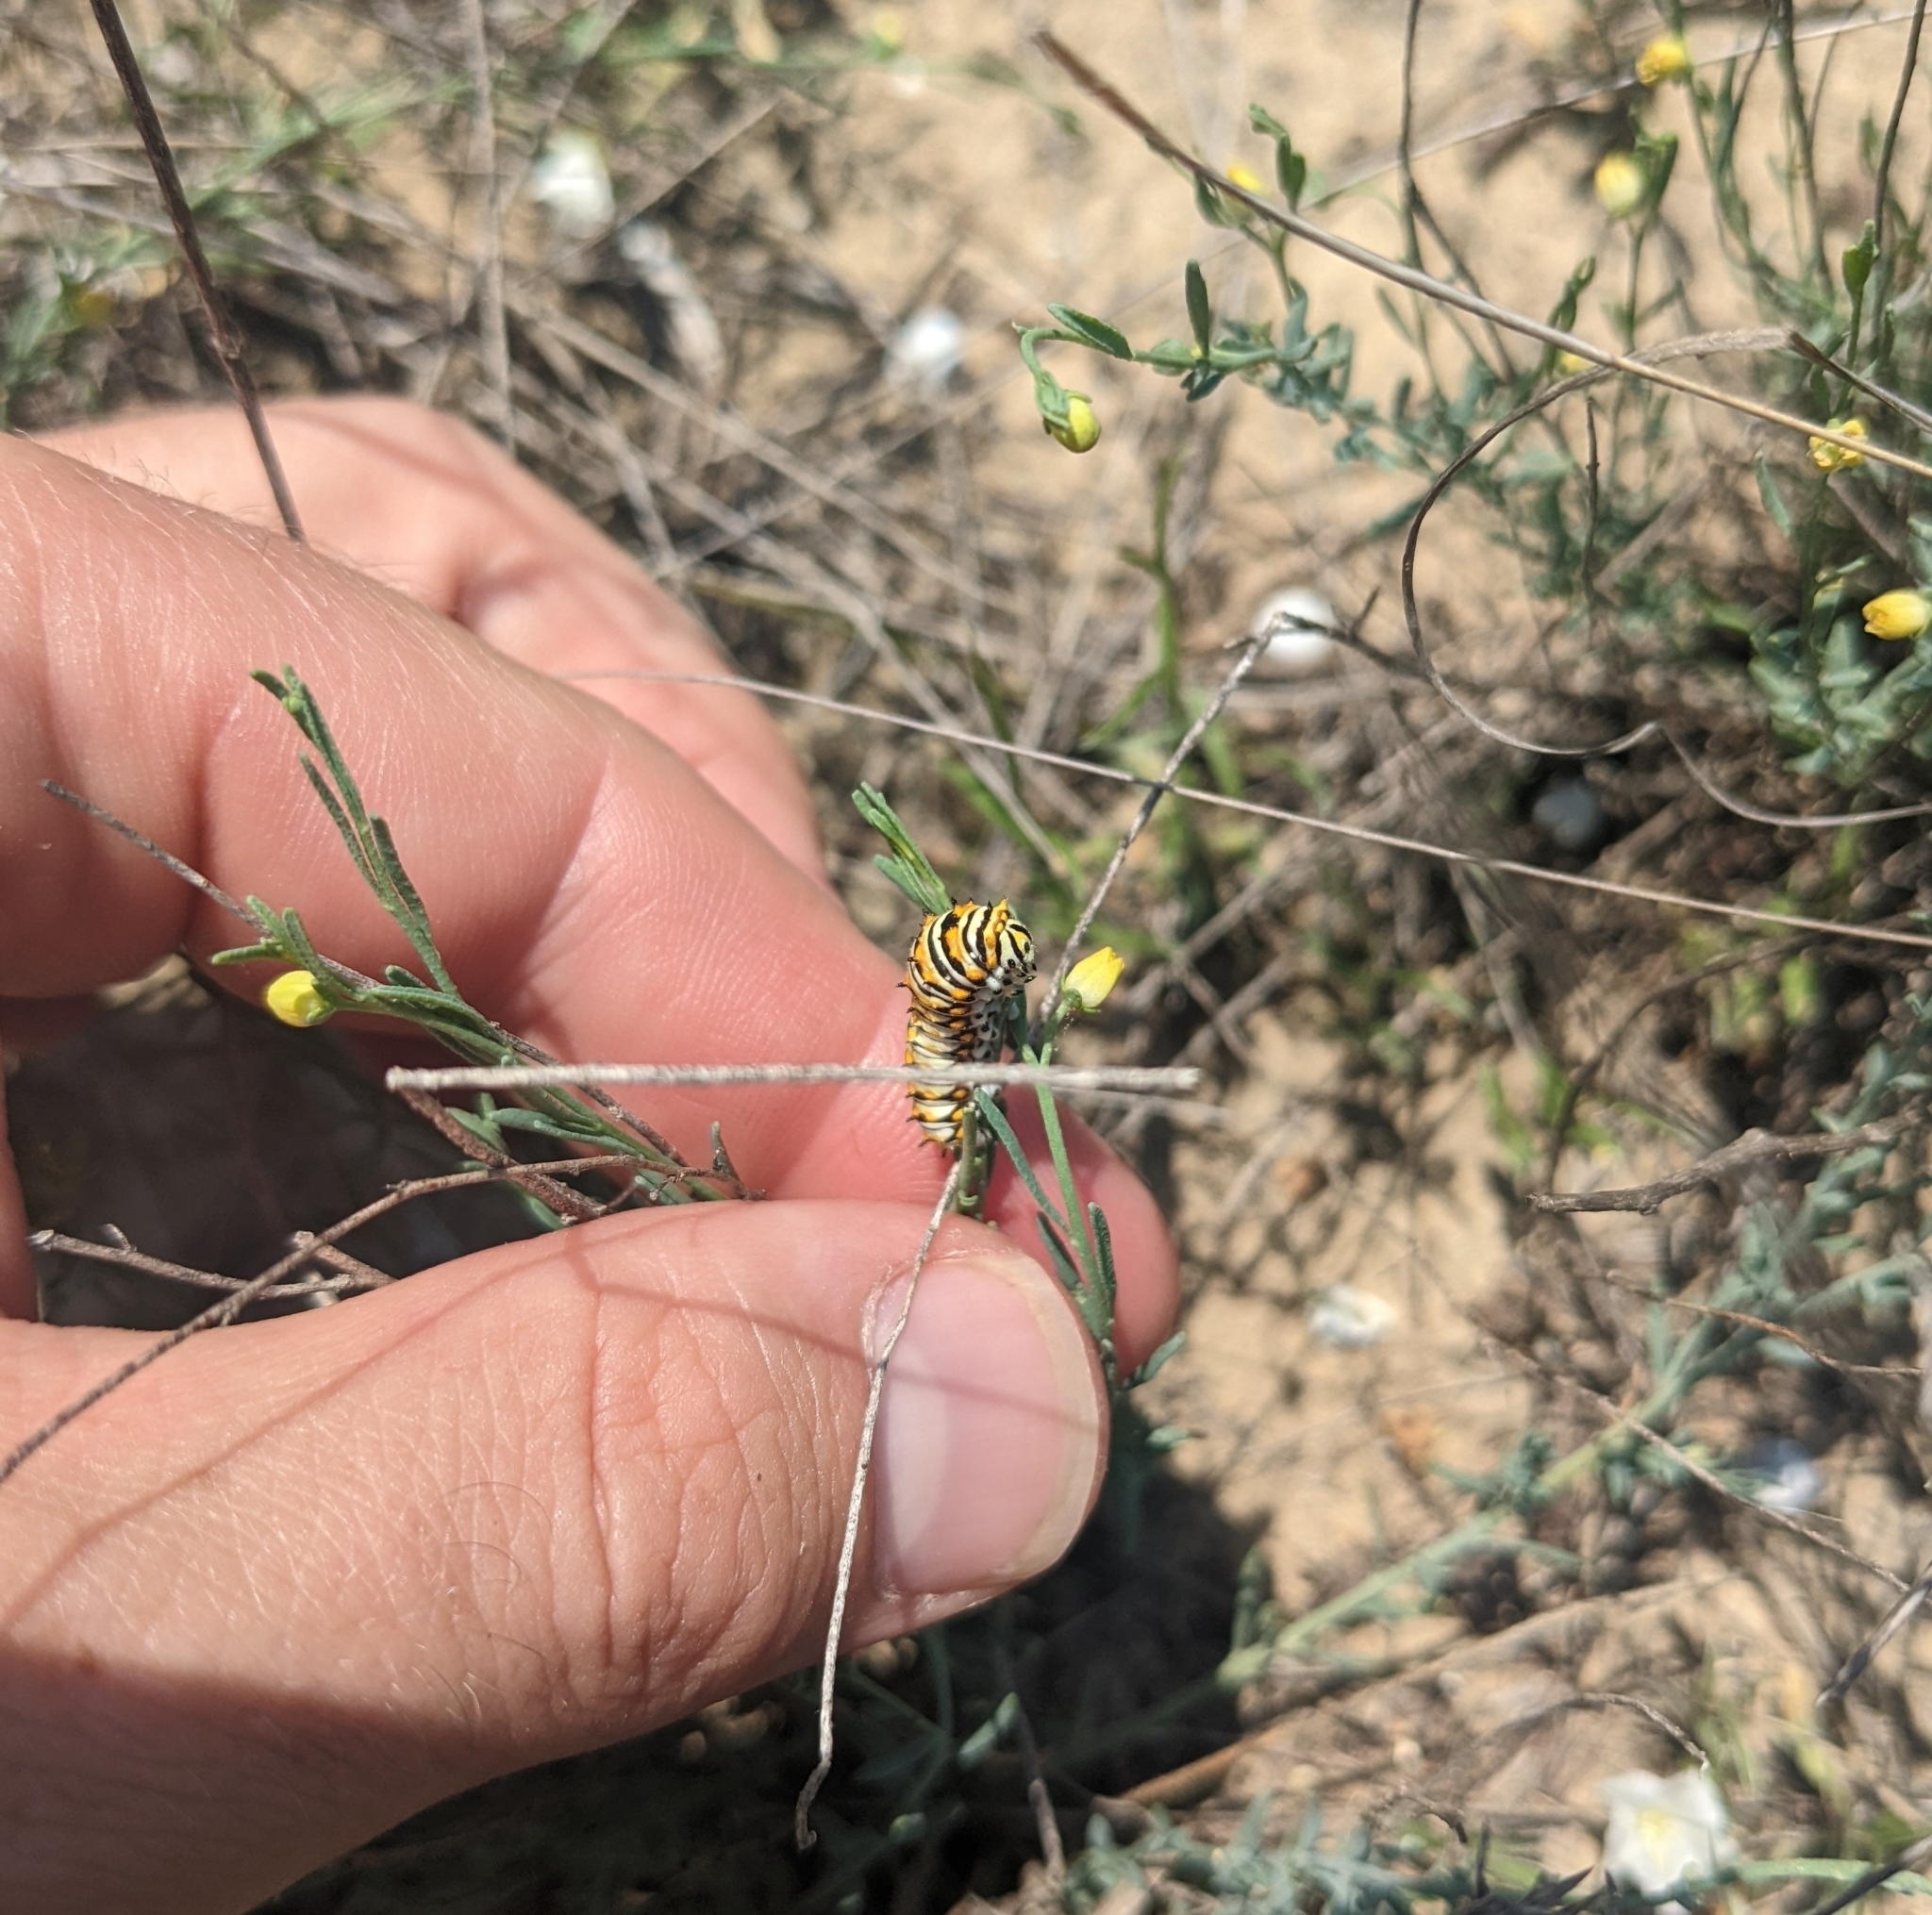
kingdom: Animalia
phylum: Arthropoda
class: Insecta
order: Lepidoptera
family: Papilionidae
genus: Papilio
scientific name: Papilio polyxenes
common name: Black swallowtail
